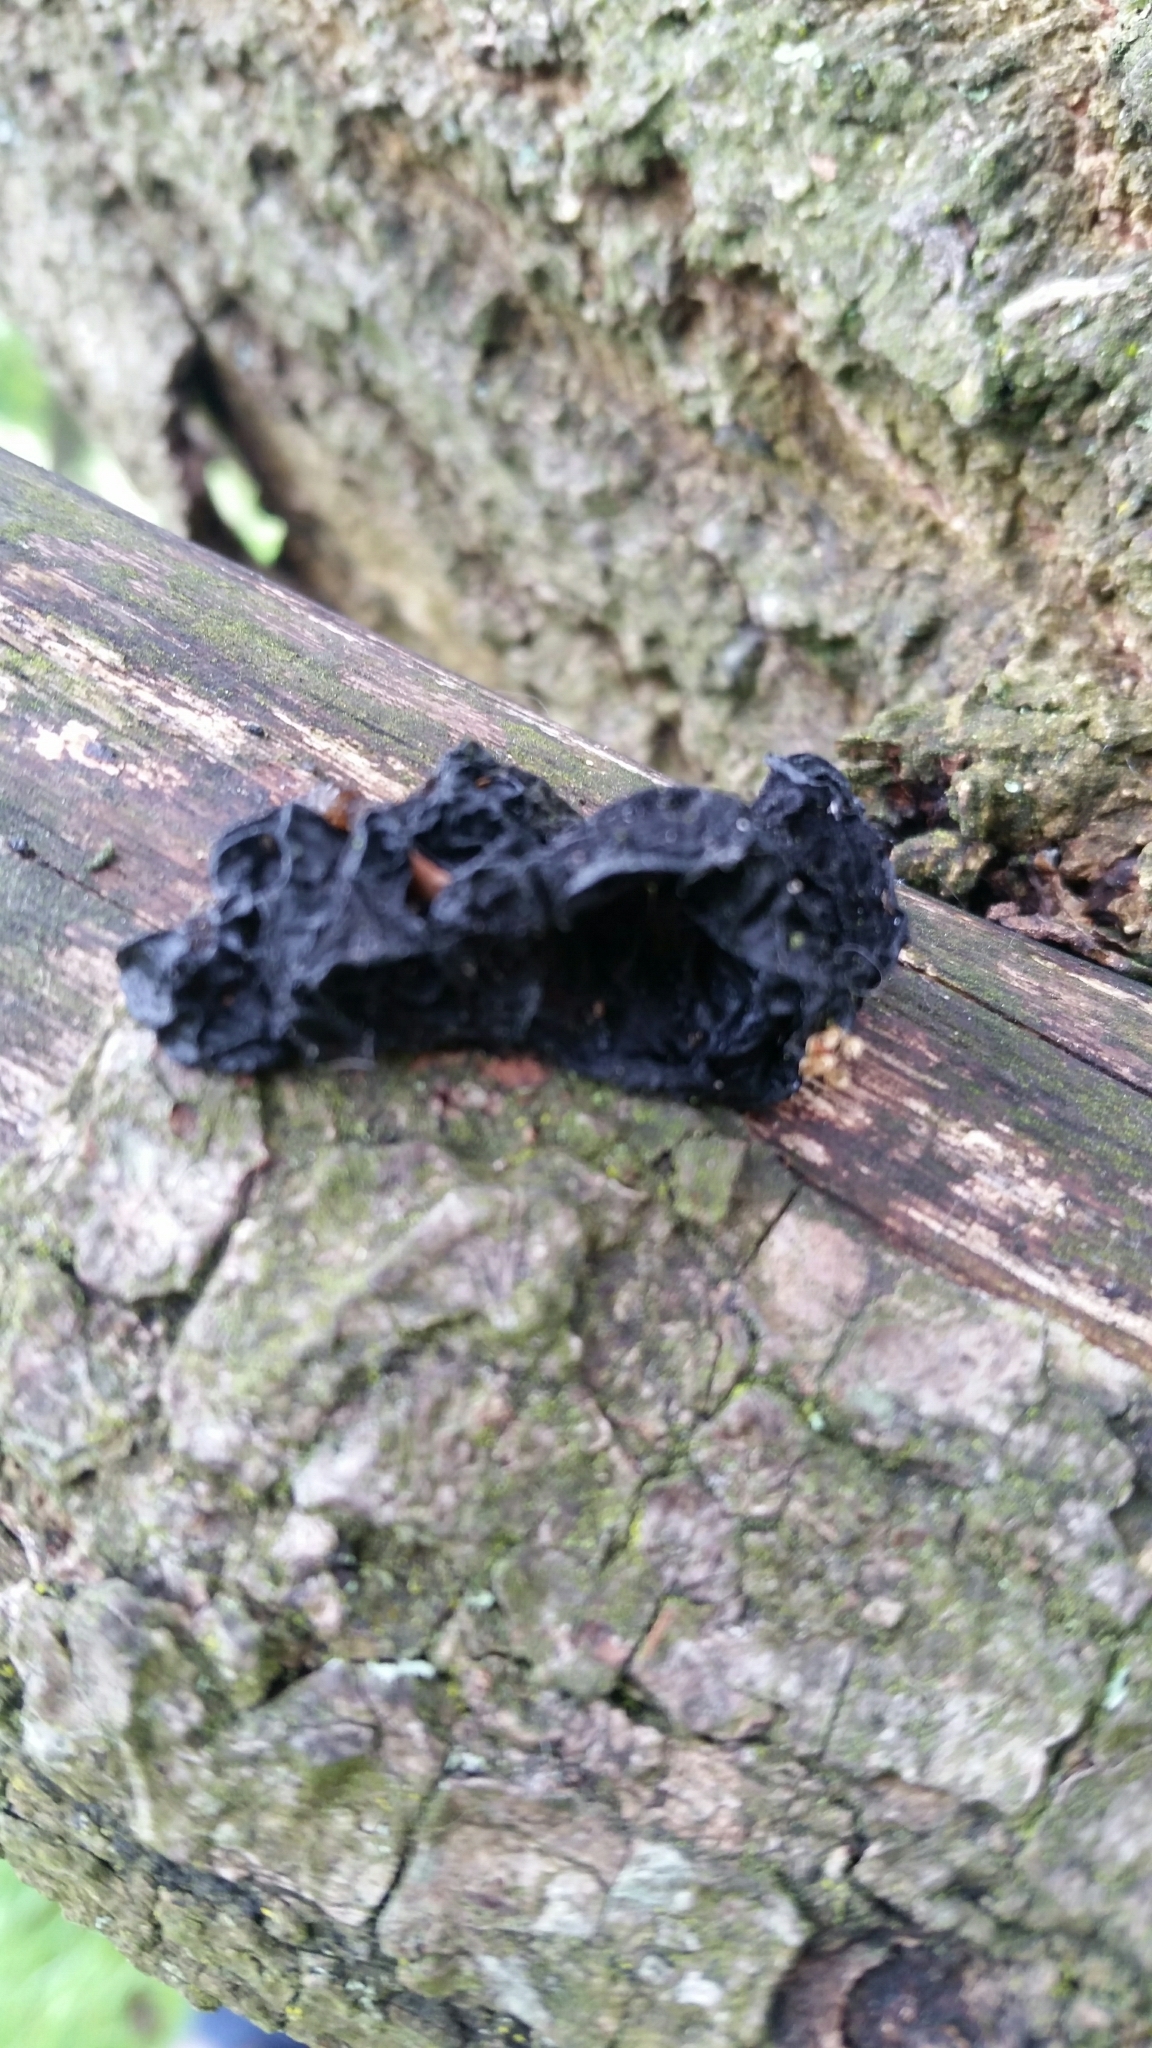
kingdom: Fungi
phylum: Basidiomycota
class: Agaricomycetes
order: Auriculariales
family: Auriculariaceae
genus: Exidia
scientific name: Exidia glandulosa
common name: Witches' butter
